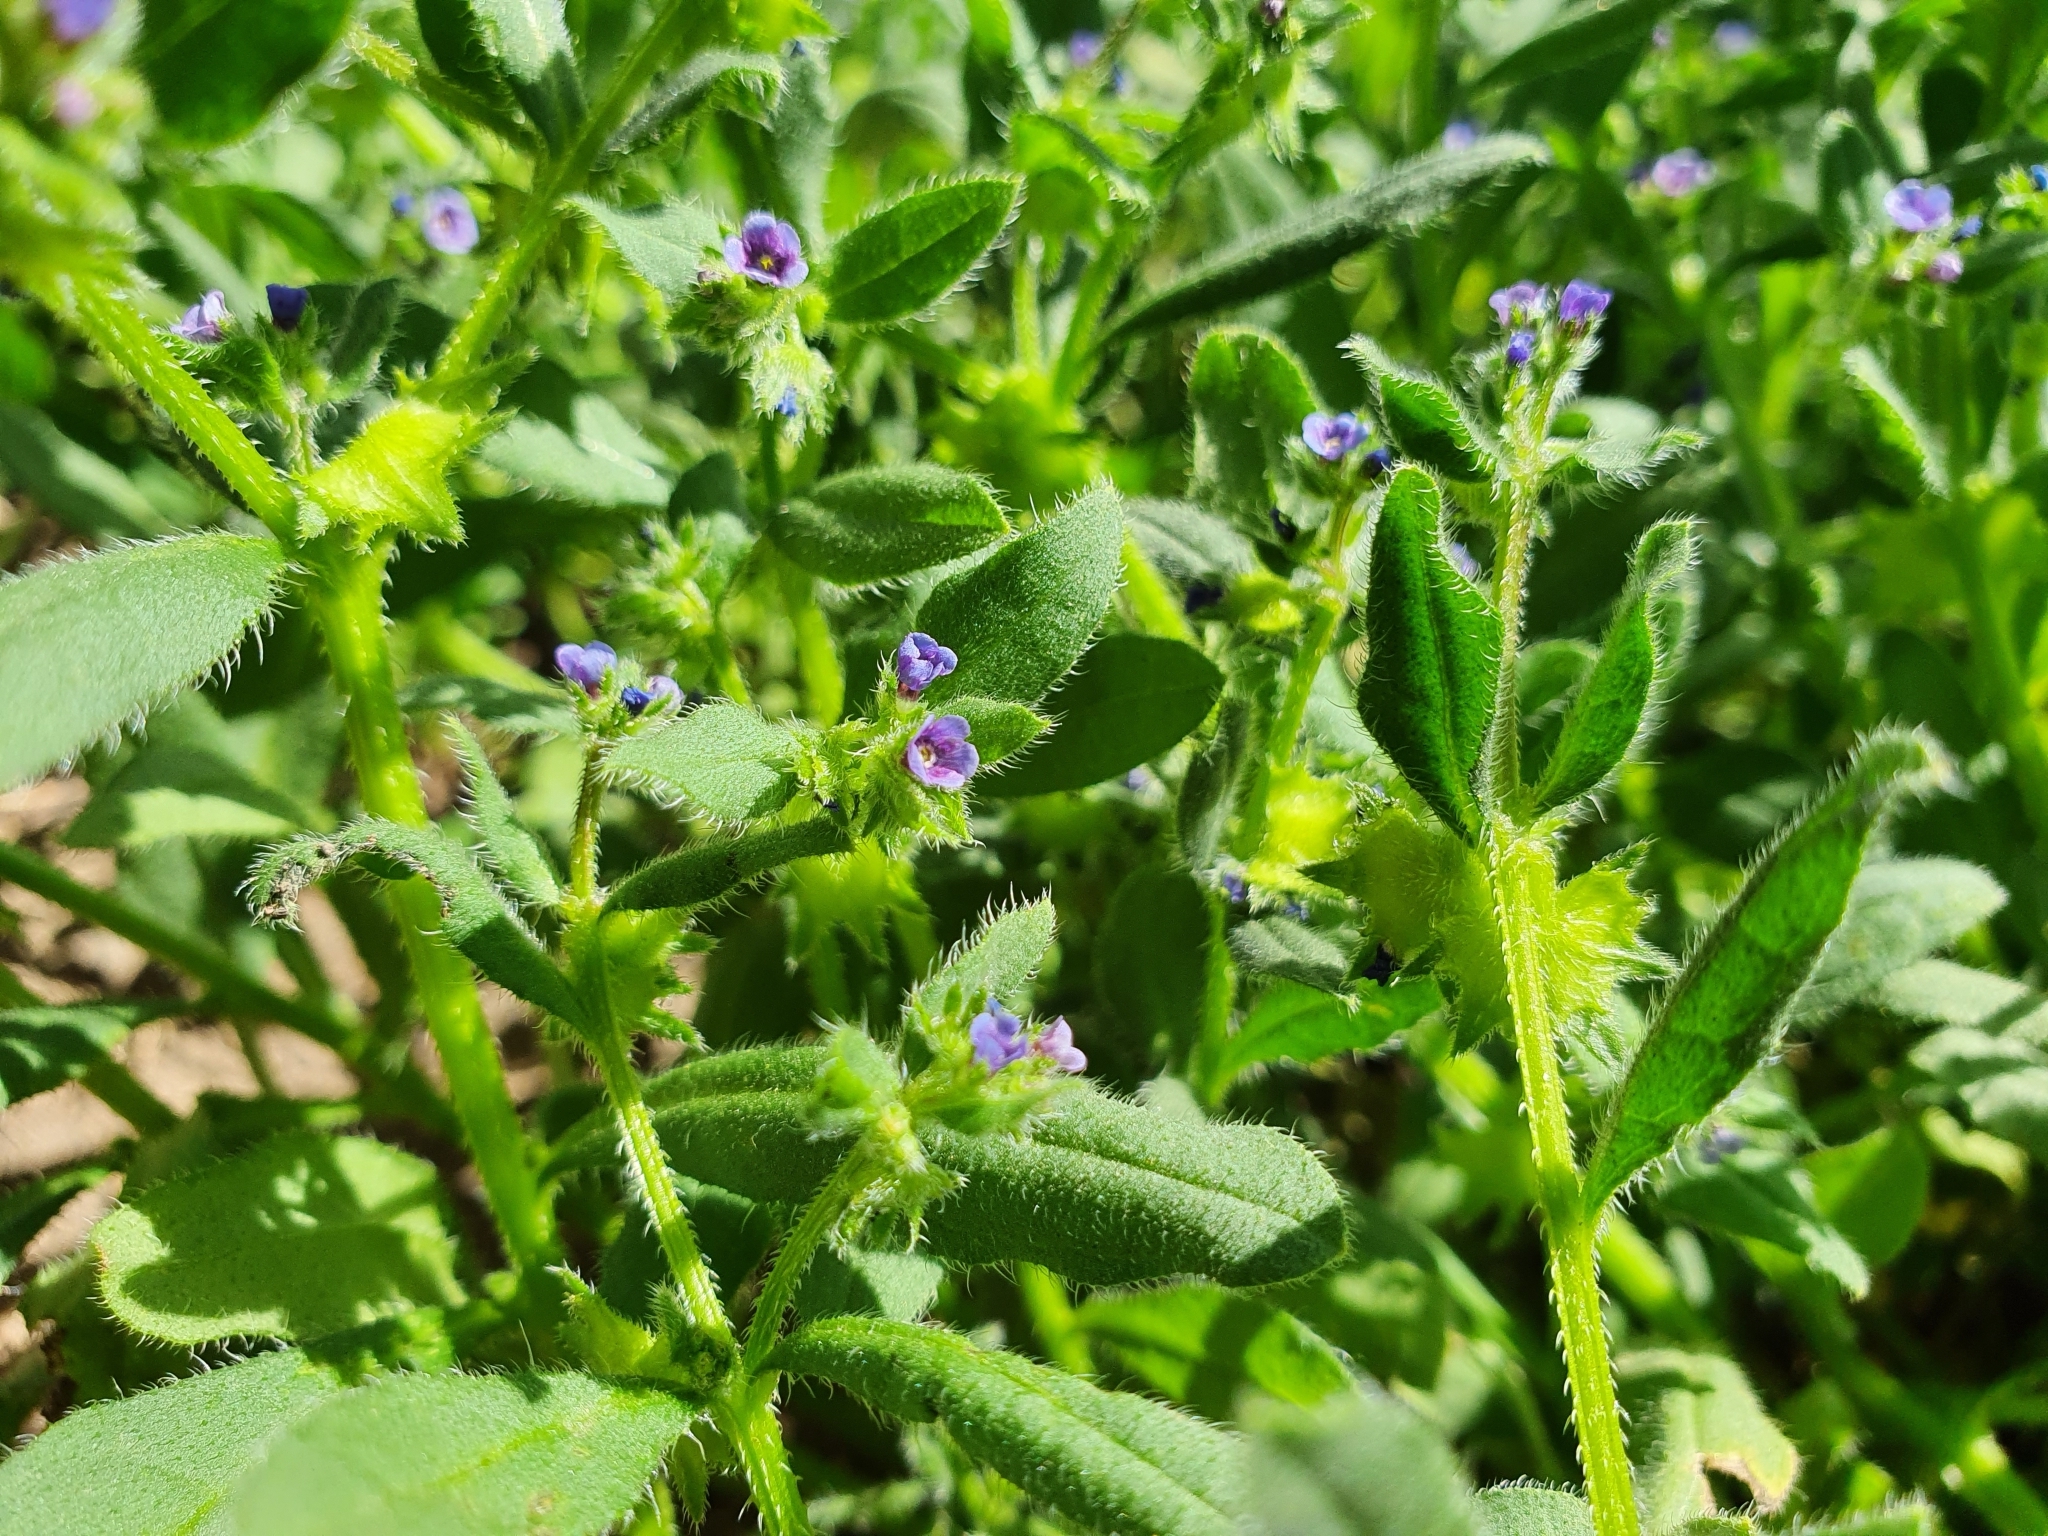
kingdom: Plantae
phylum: Tracheophyta
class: Magnoliopsida
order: Boraginales
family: Boraginaceae
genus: Asperugo
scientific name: Asperugo procumbens
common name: Madwort
